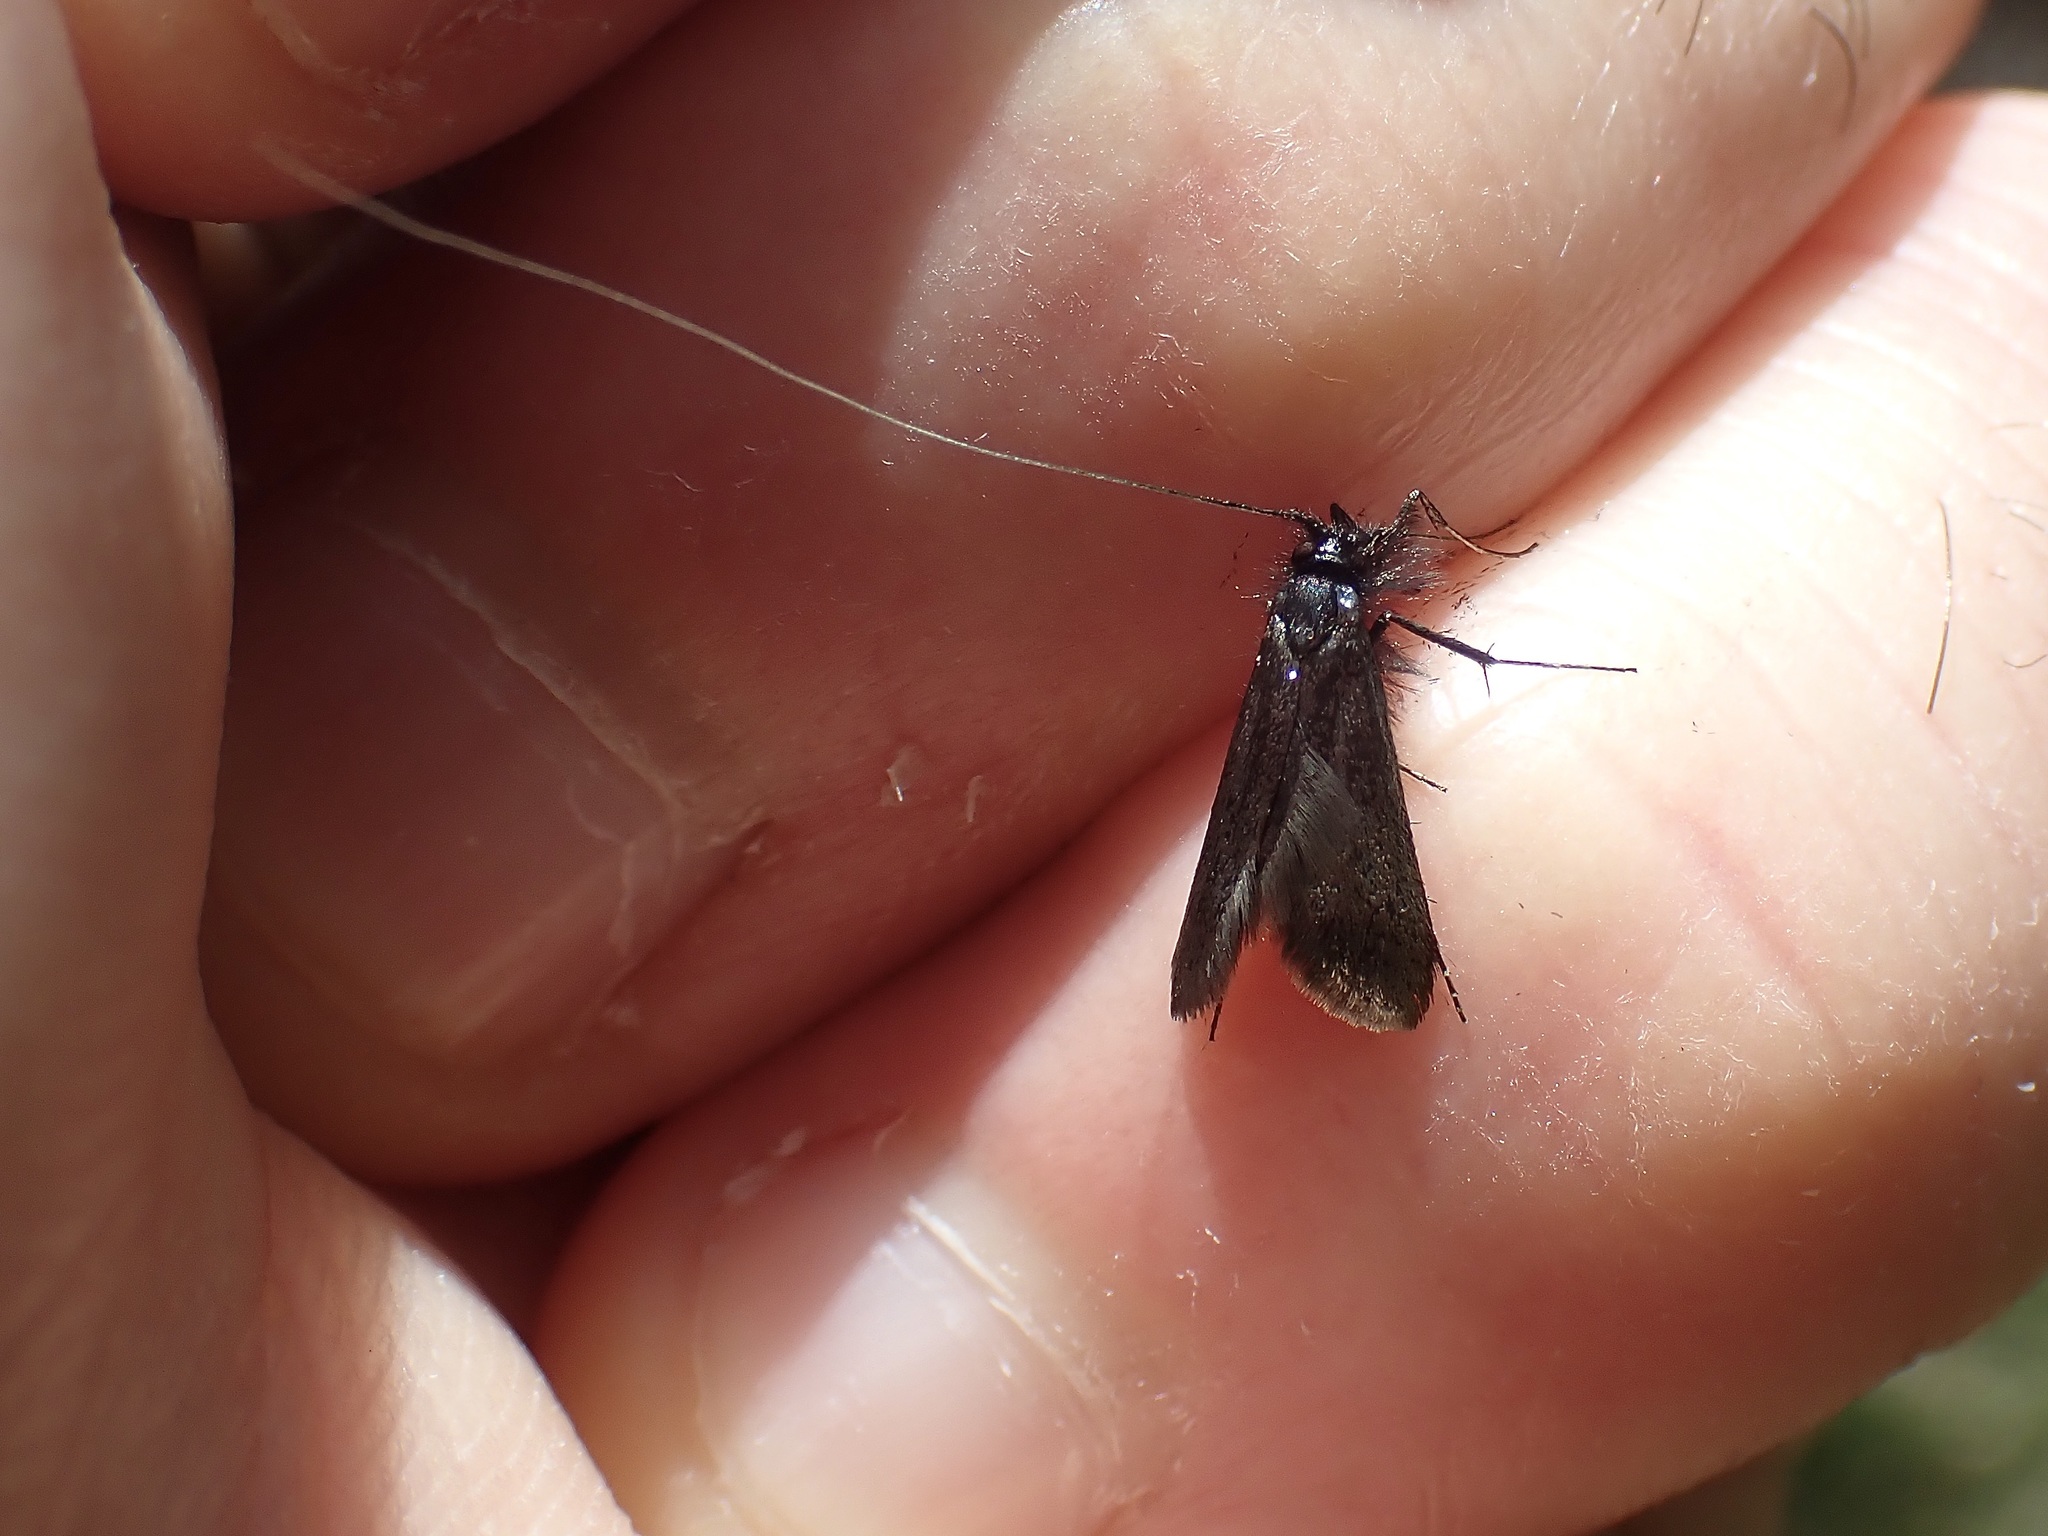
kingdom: Animalia
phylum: Arthropoda
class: Insecta
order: Lepidoptera
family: Adelidae
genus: Adela
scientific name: Adela viridella
